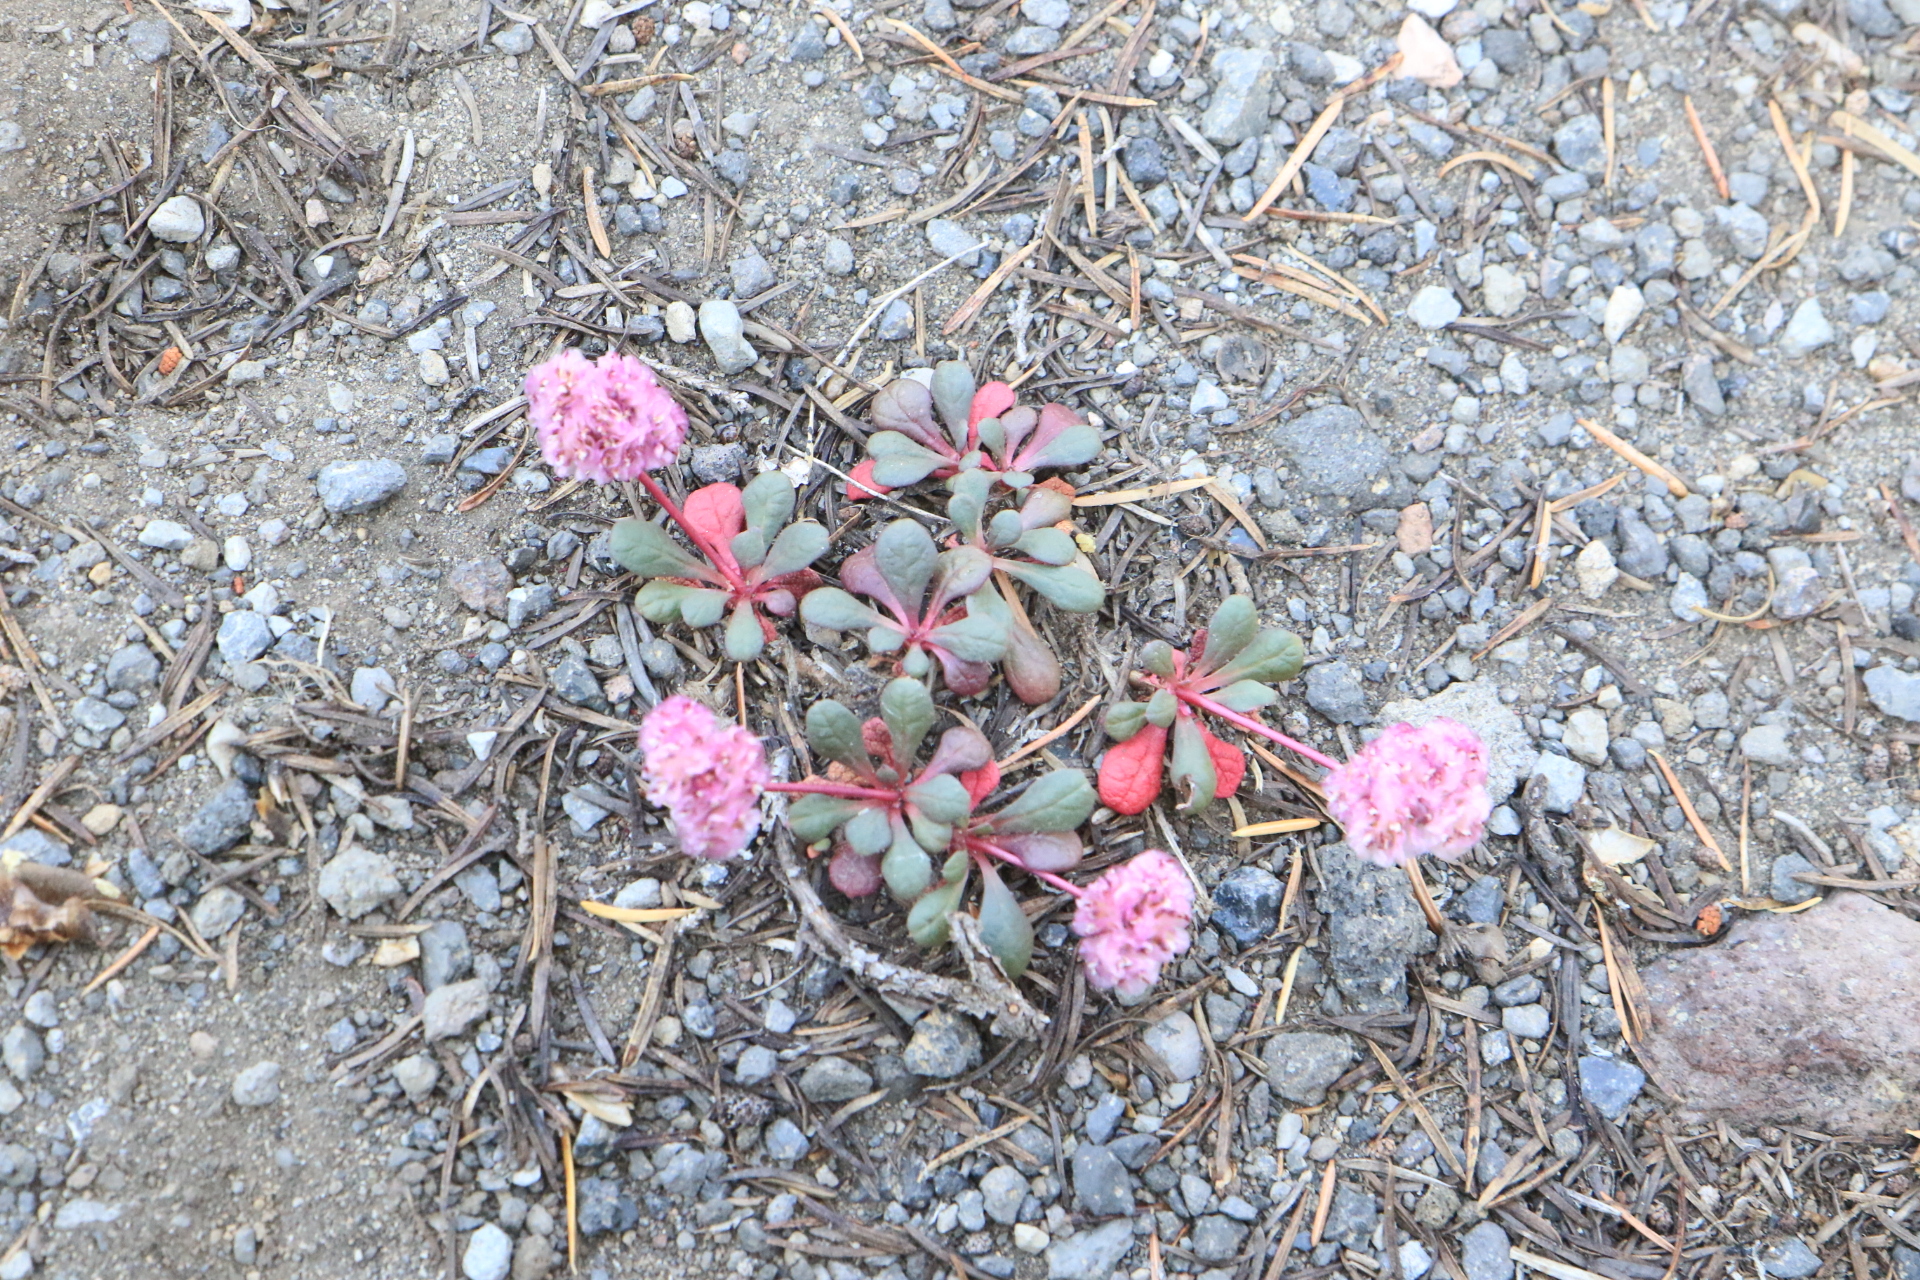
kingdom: Plantae
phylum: Tracheophyta
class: Magnoliopsida
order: Caryophyllales
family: Montiaceae
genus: Calyptridium
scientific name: Calyptridium umbellatum
